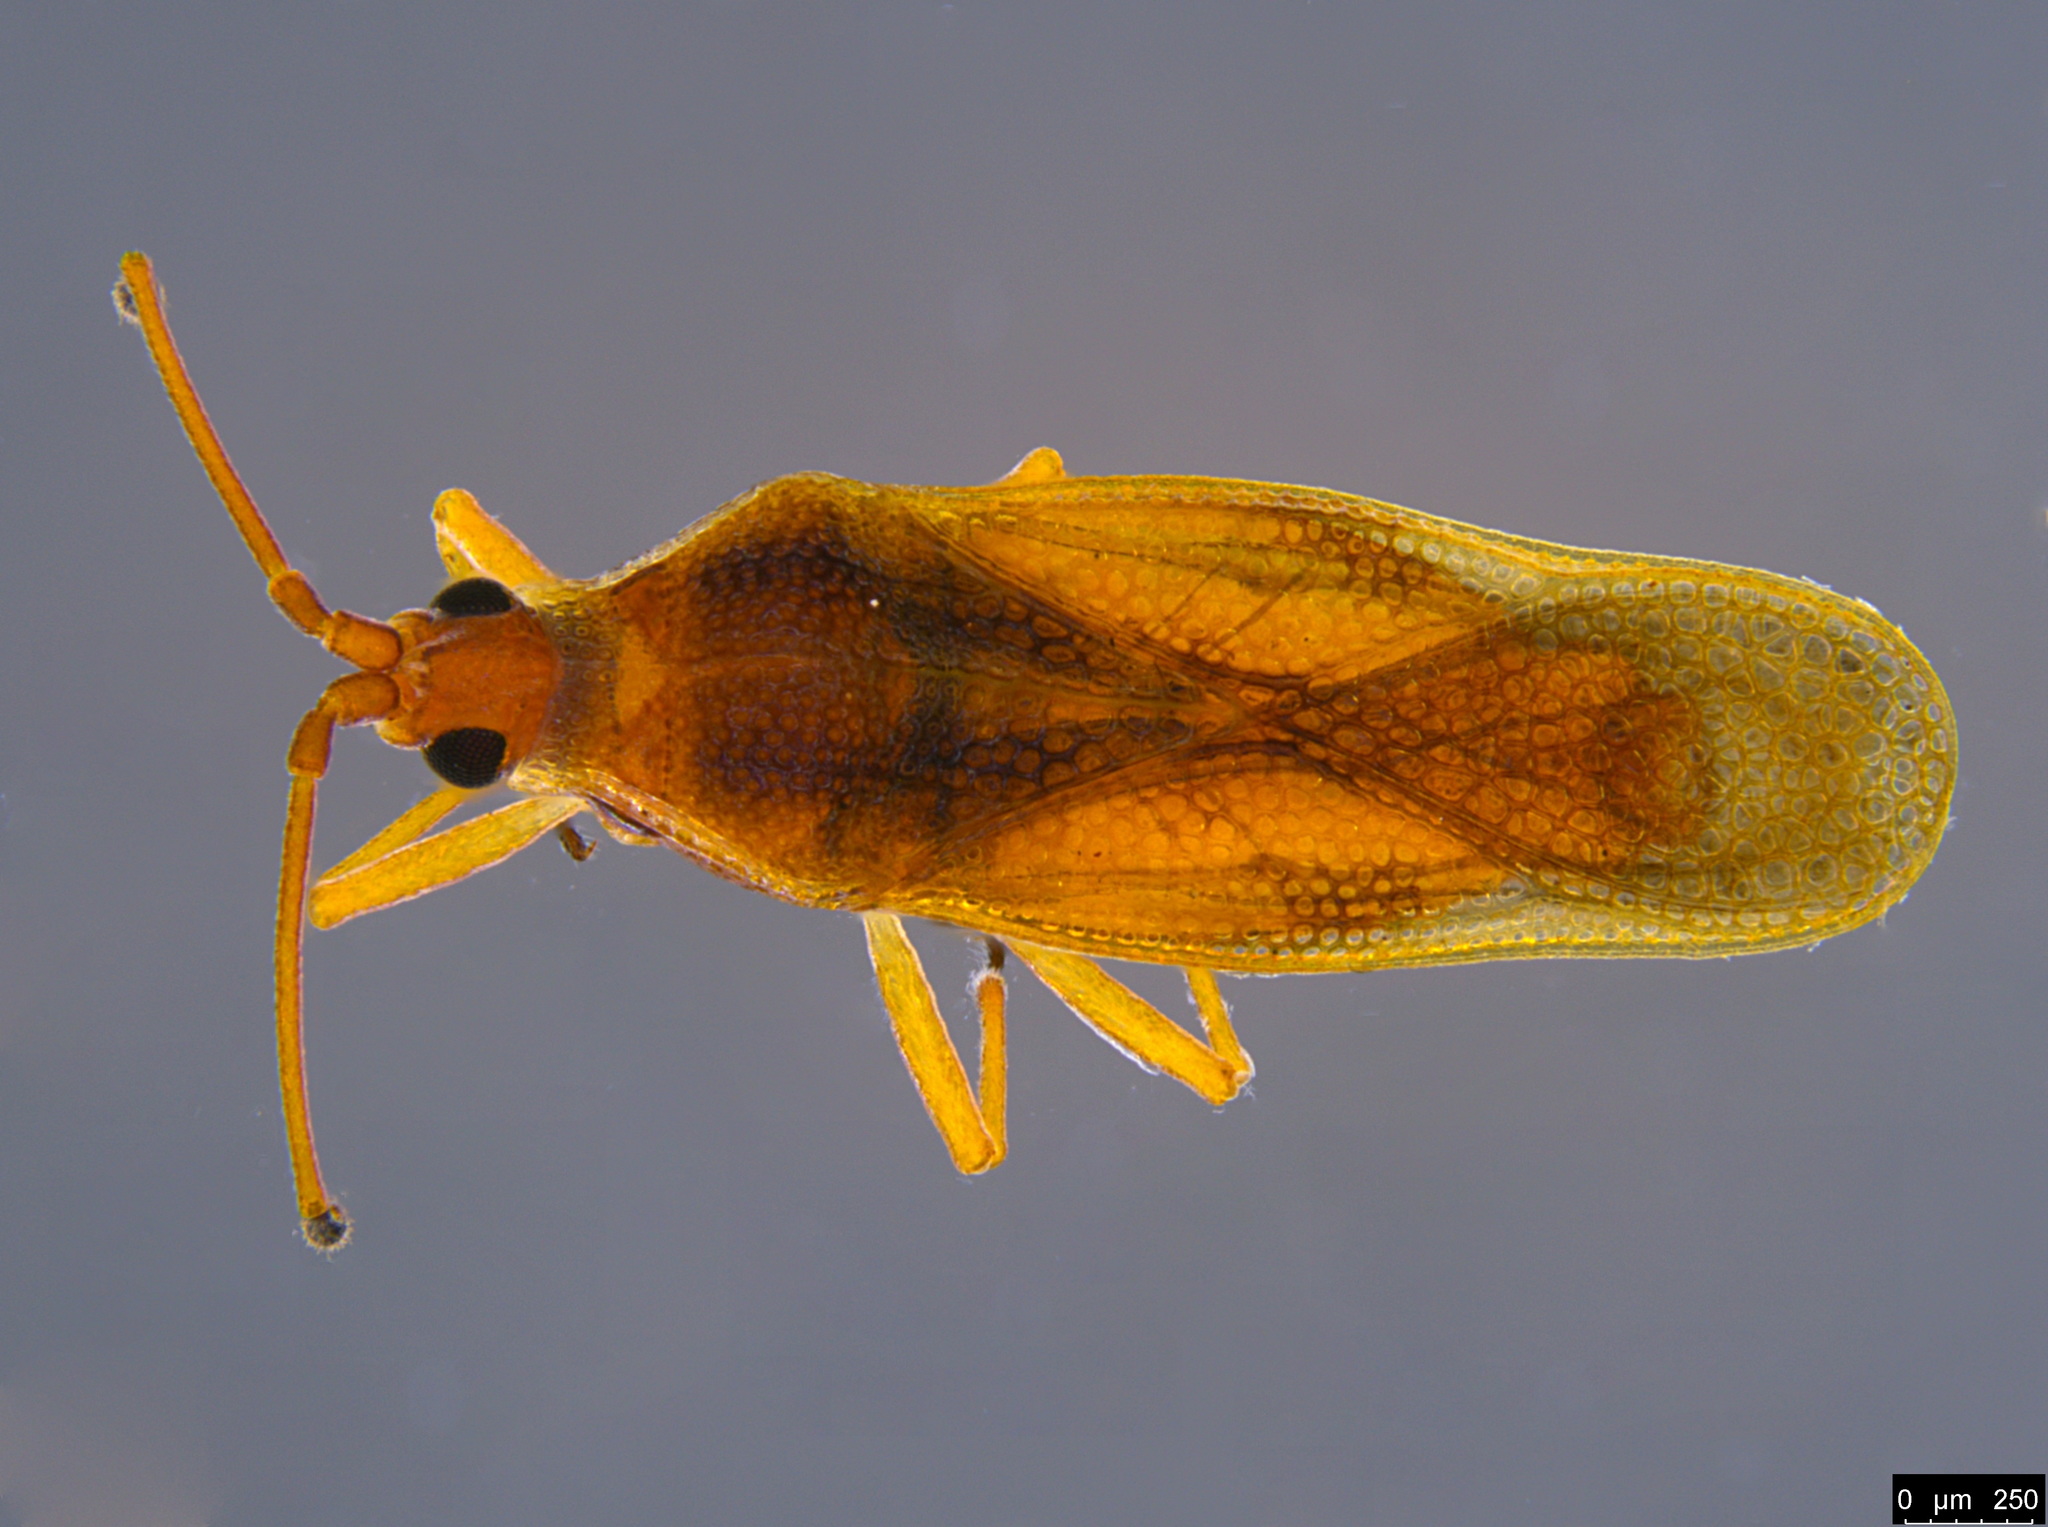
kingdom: Animalia
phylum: Arthropoda
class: Insecta
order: Hemiptera
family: Tingidae
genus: Malandiola
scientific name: Malandiola similis
